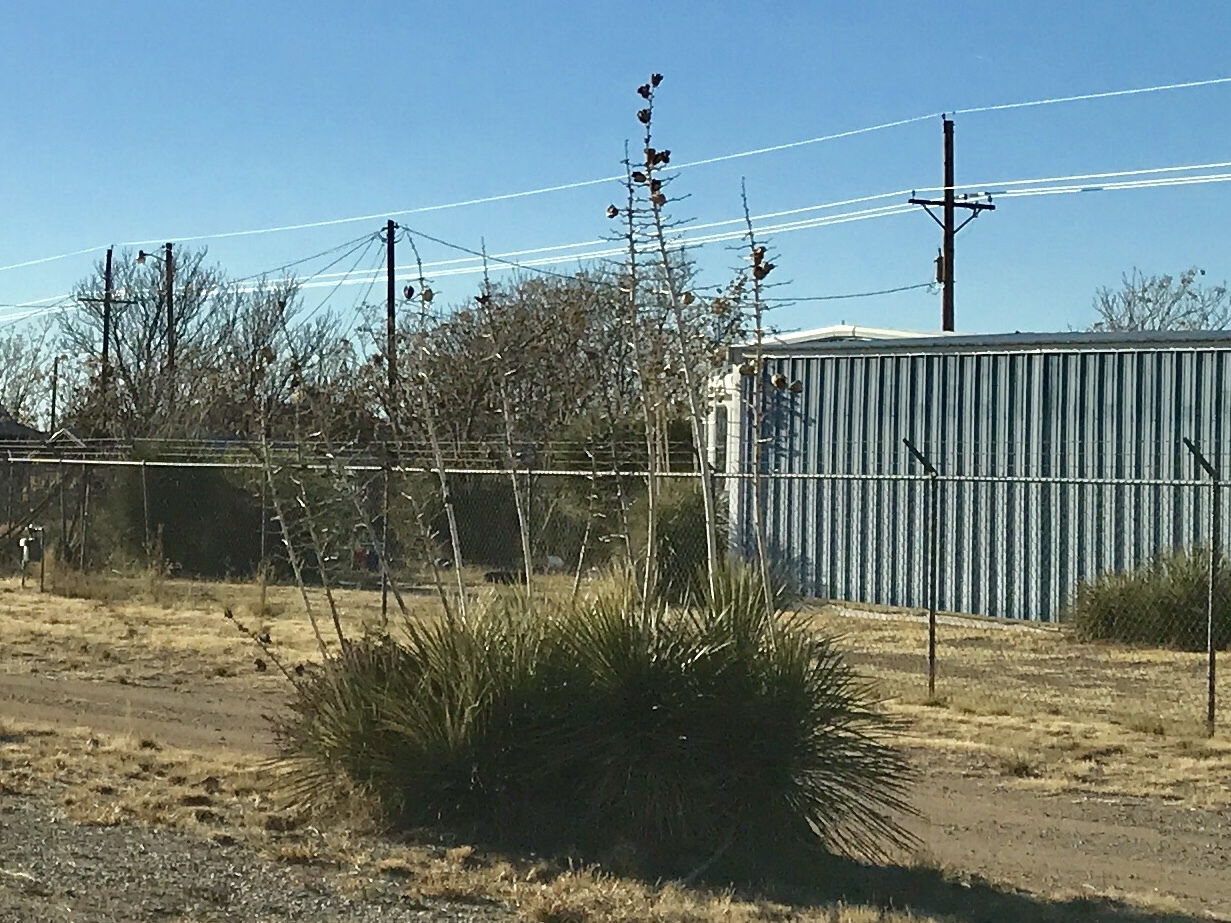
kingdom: Plantae
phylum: Tracheophyta
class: Liliopsida
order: Asparagales
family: Asparagaceae
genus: Yucca
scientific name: Yucca elata
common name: Palmella
